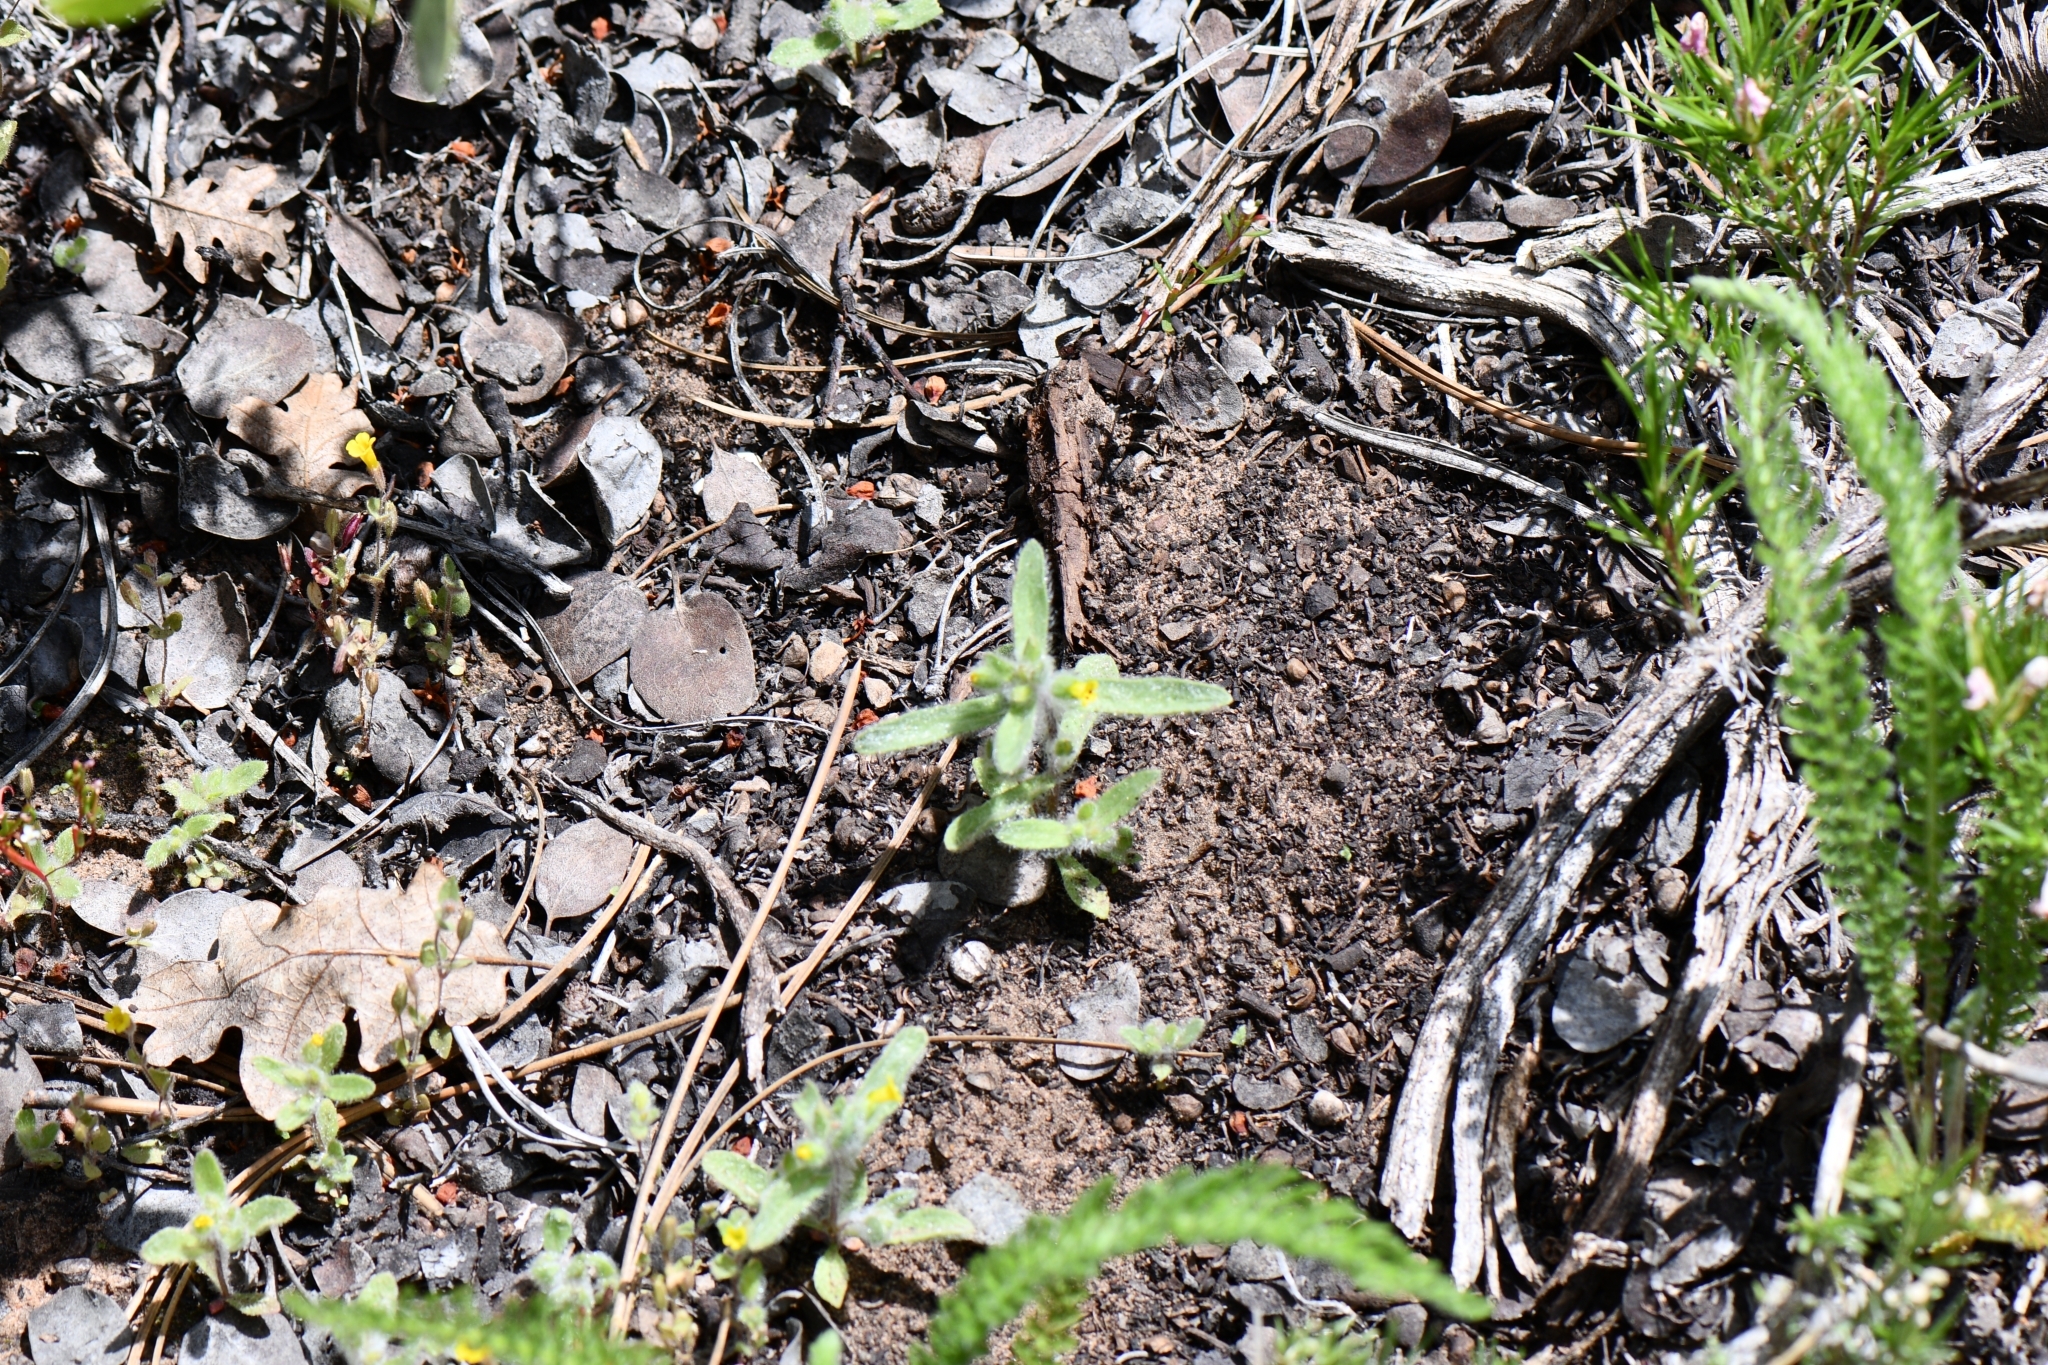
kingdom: Plantae
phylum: Tracheophyta
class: Magnoliopsida
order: Lamiales
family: Phrymaceae
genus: Mimetanthe
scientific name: Mimetanthe pilosa
